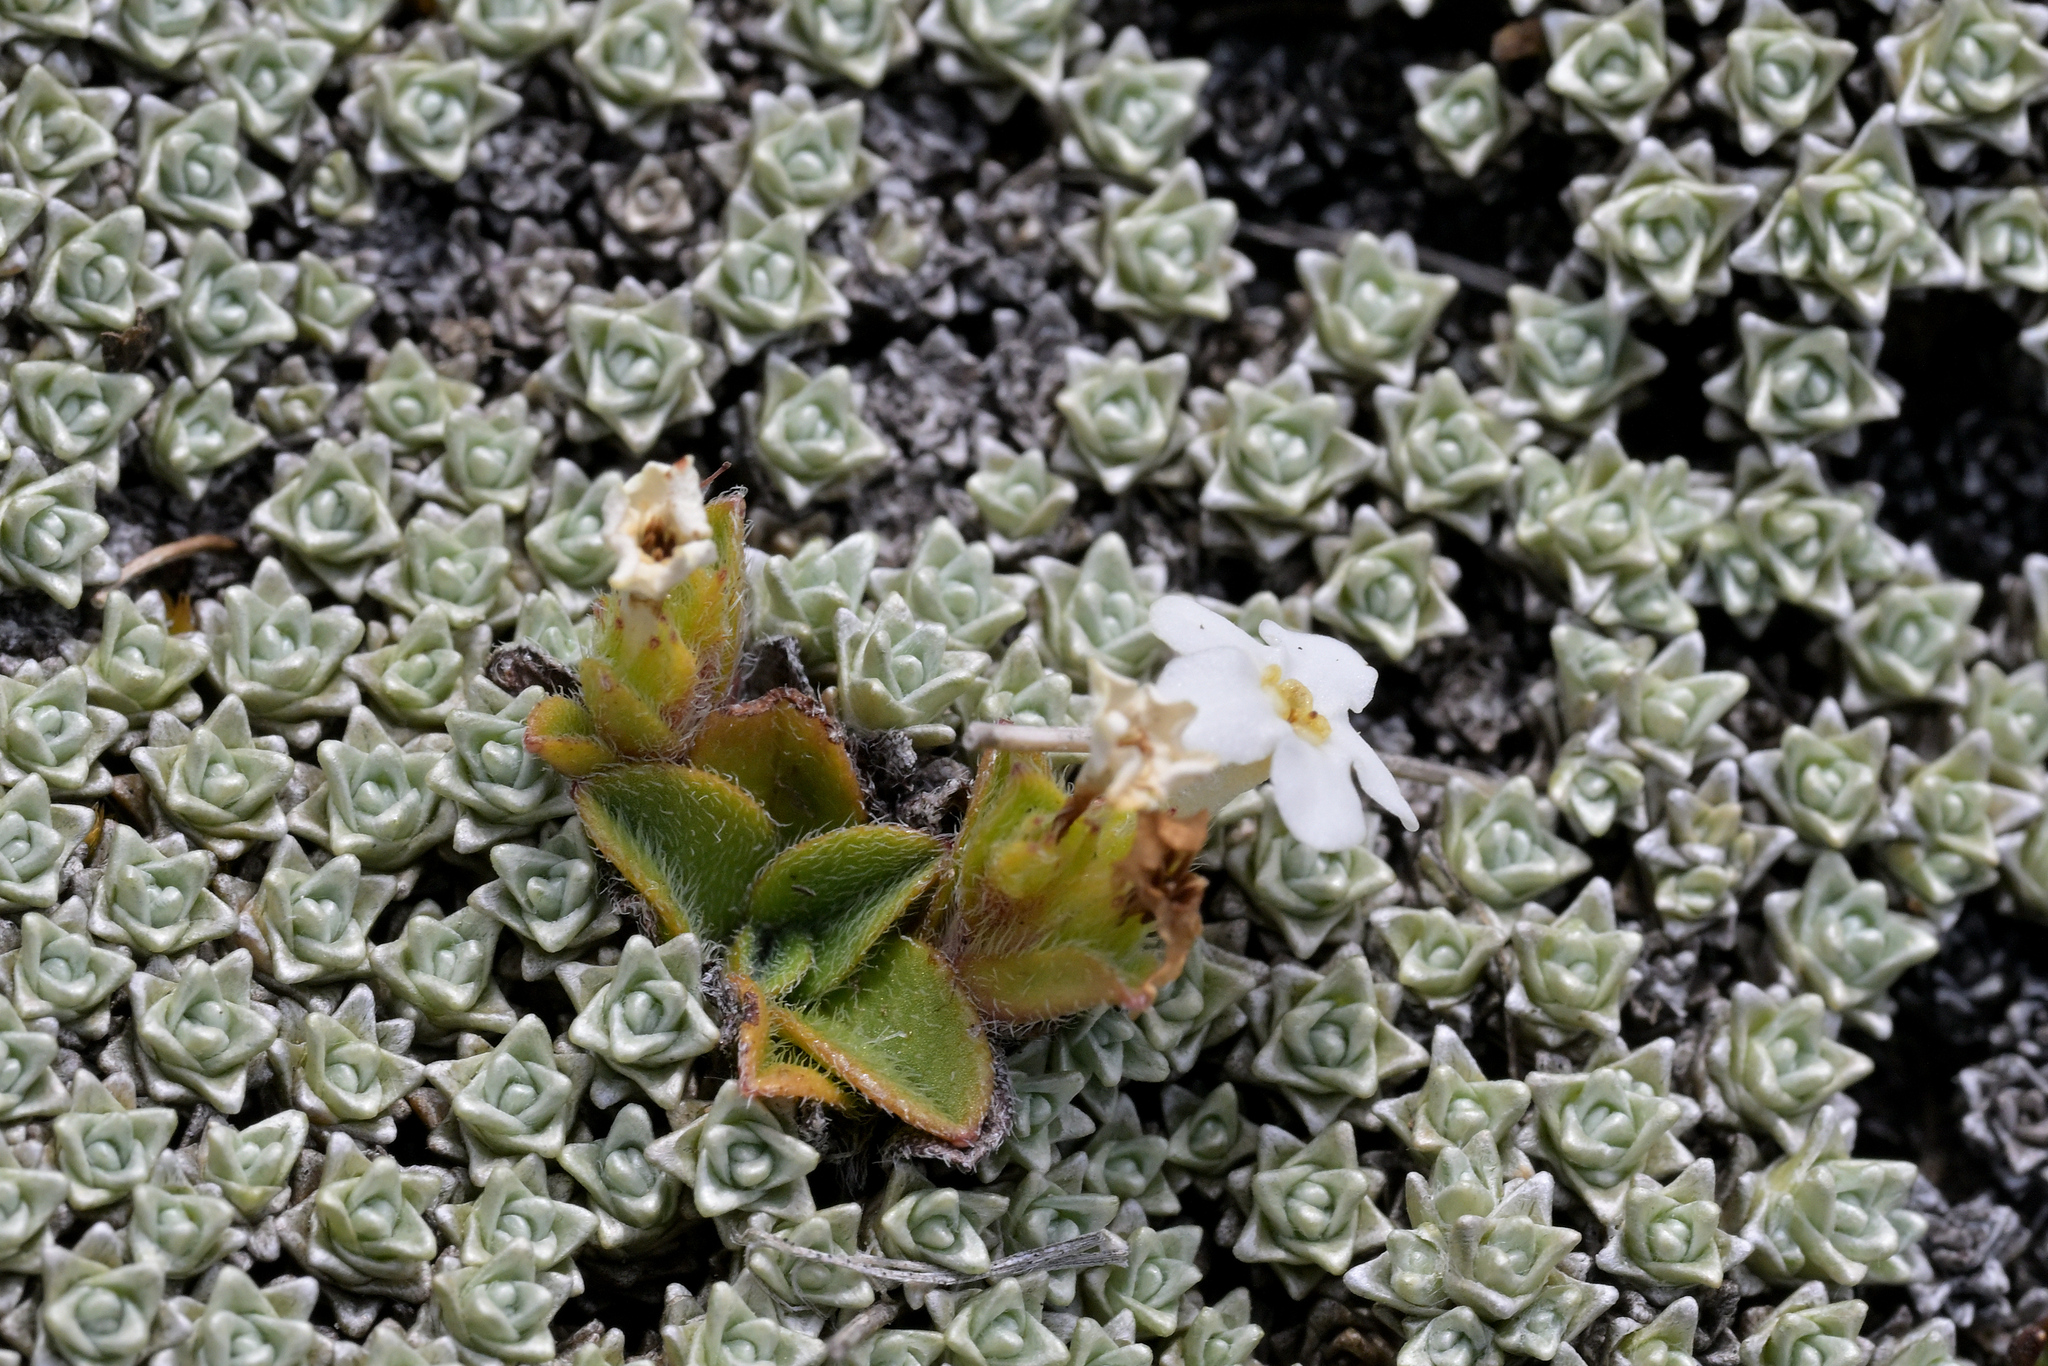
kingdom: Plantae
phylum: Tracheophyta
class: Magnoliopsida
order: Boraginales
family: Boraginaceae
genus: Myosotis
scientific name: Myosotis lyallii
